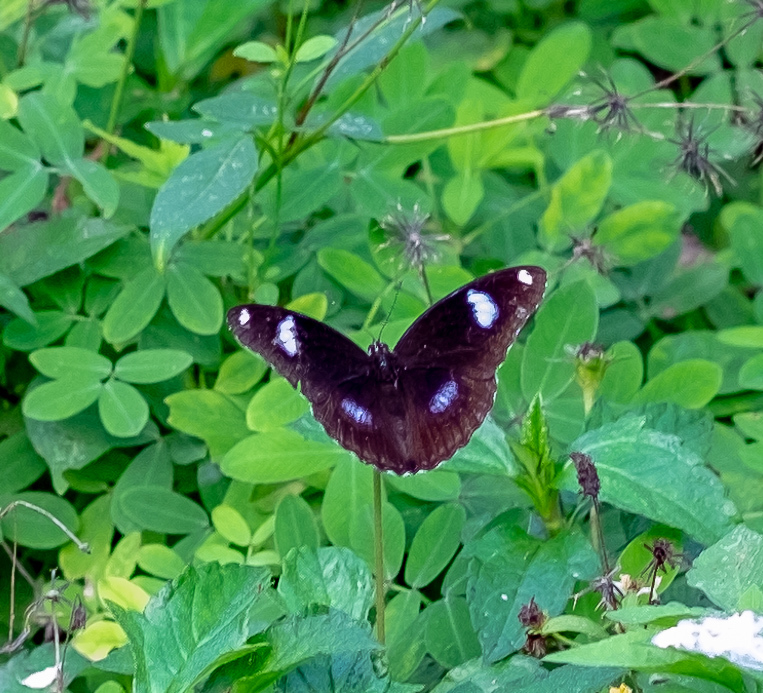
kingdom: Animalia
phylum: Arthropoda
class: Insecta
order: Lepidoptera
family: Nymphalidae
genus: Hypolimnas
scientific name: Hypolimnas bolina
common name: Great eggfly
